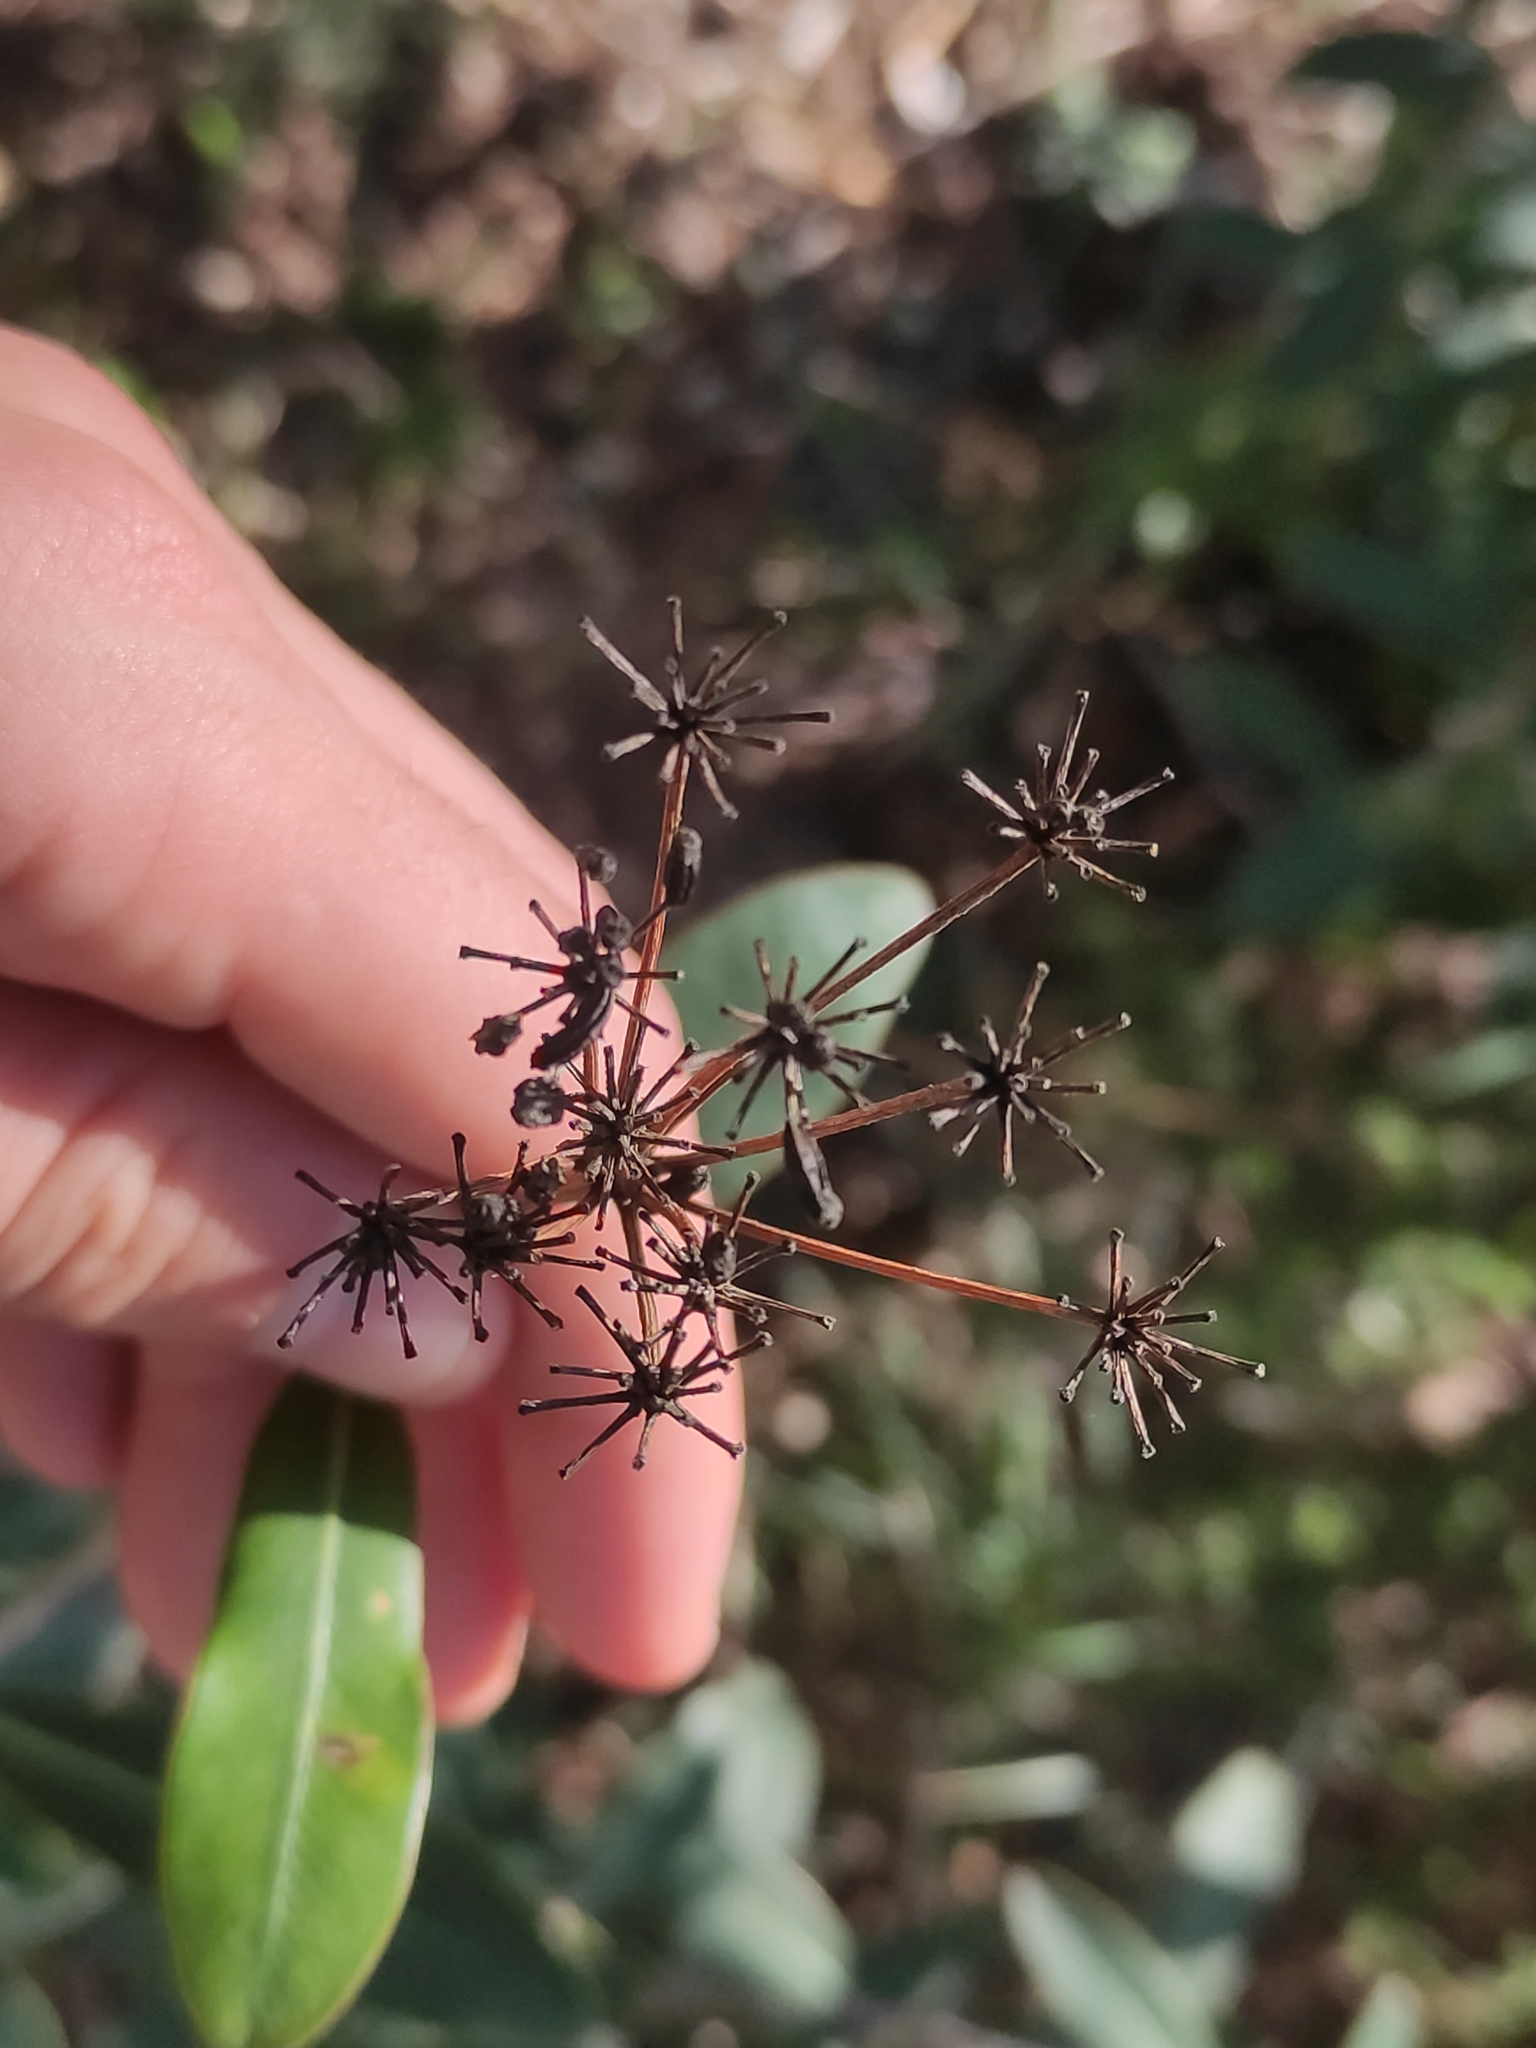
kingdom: Plantae
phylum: Tracheophyta
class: Magnoliopsida
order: Apiales
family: Apiaceae
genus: Bupleurum
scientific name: Bupleurum fruticosum
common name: Shrubby hare's-ear
